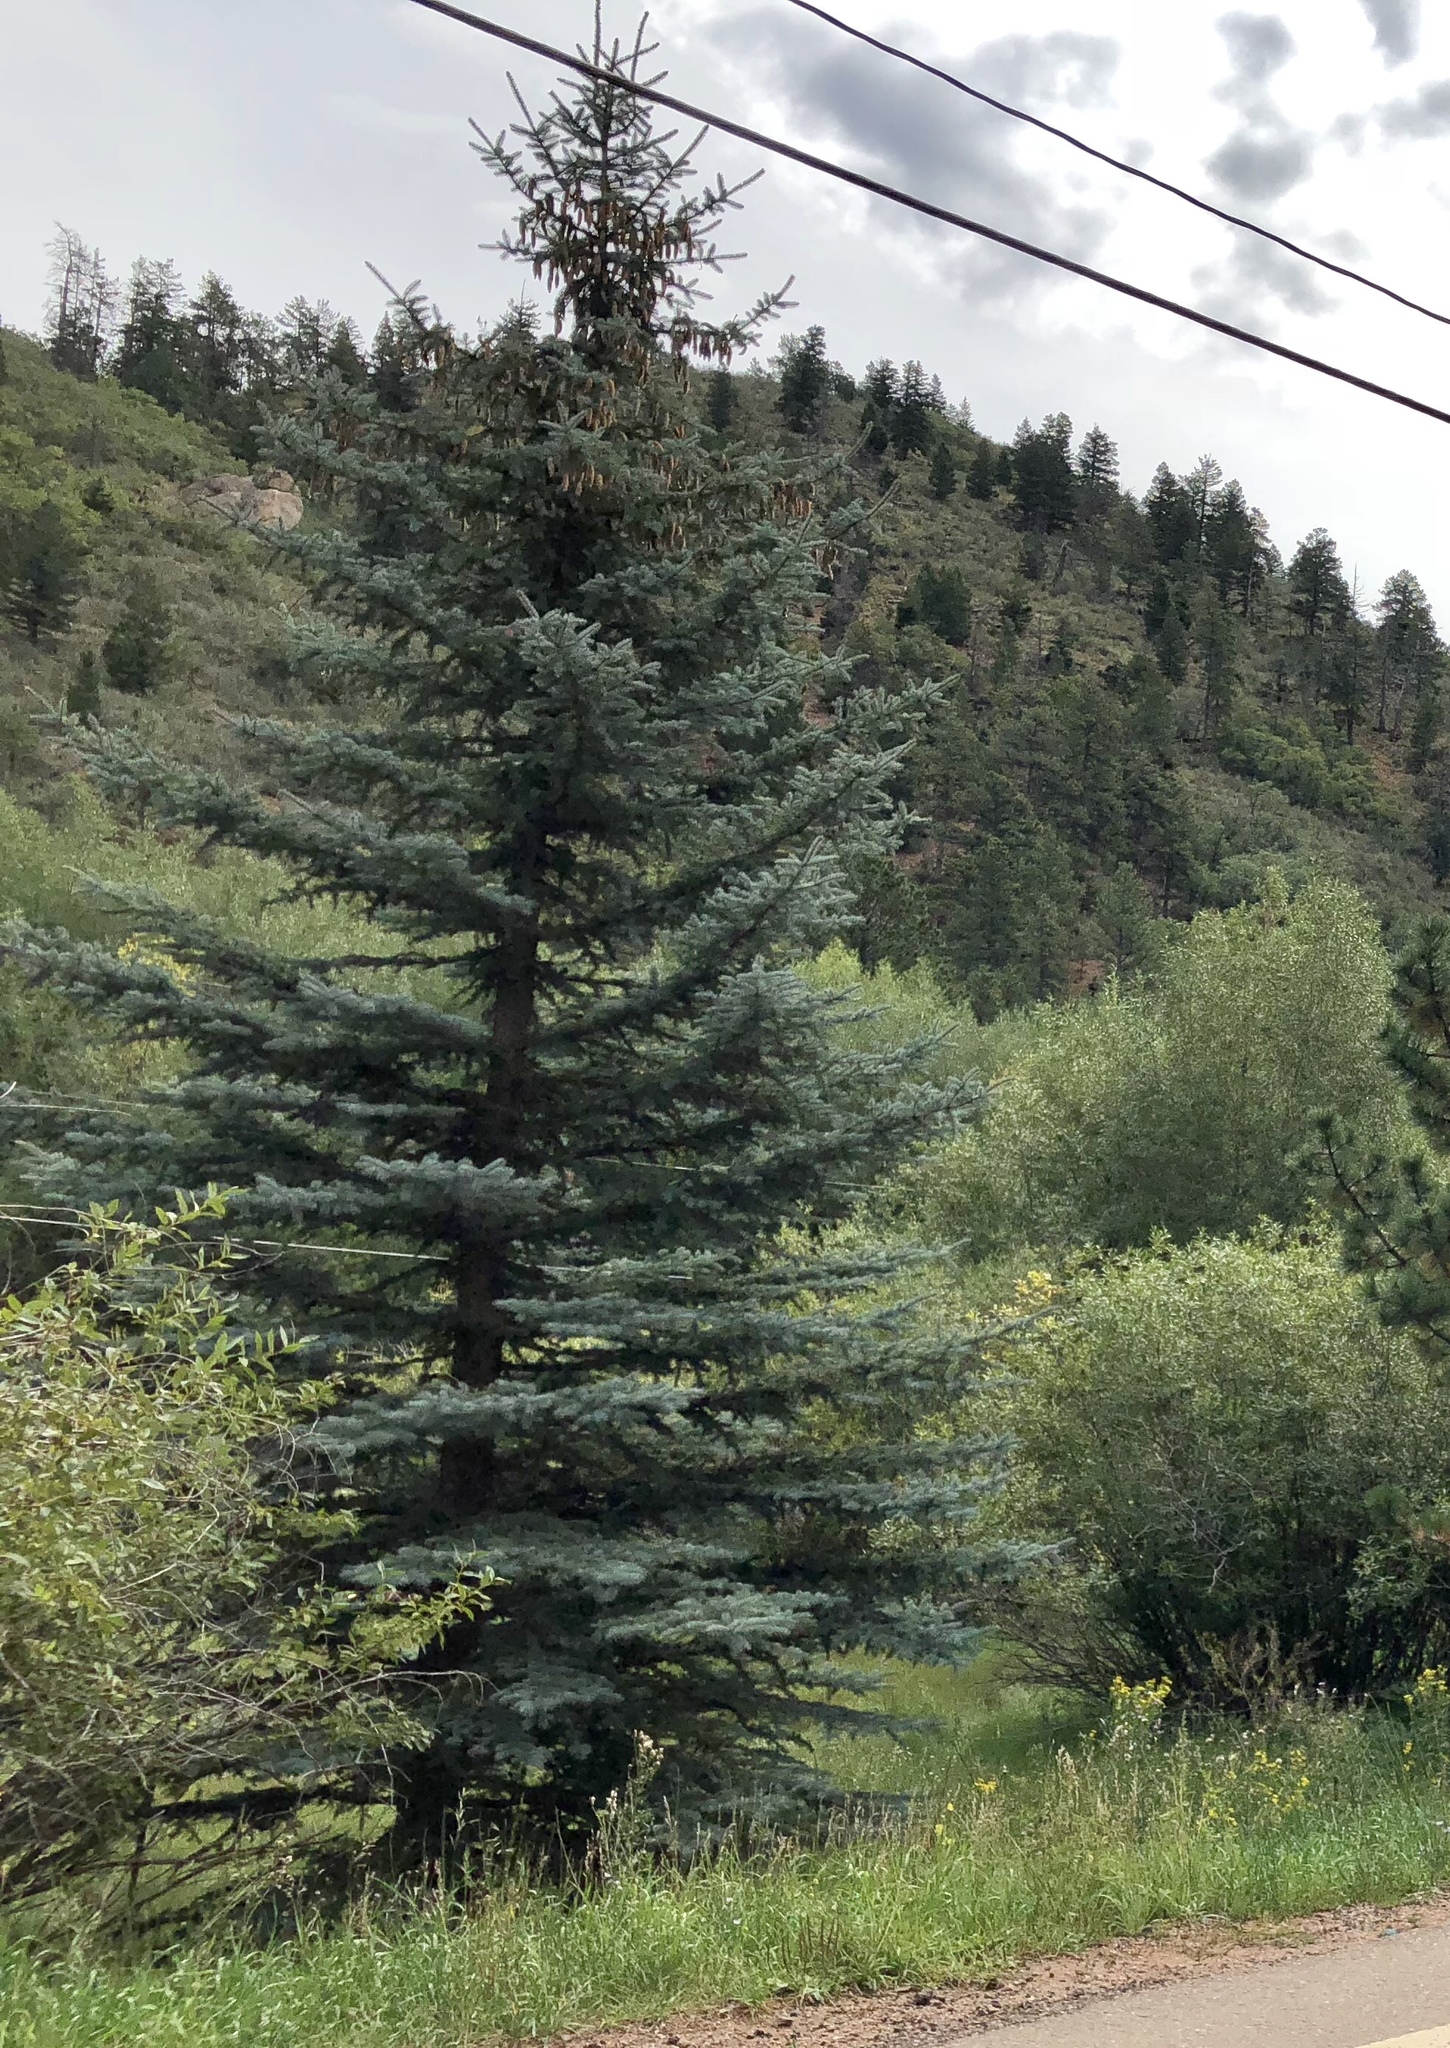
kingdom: Plantae
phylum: Tracheophyta
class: Pinopsida
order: Pinales
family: Pinaceae
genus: Picea
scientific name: Picea pungens
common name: Colorado spruce
